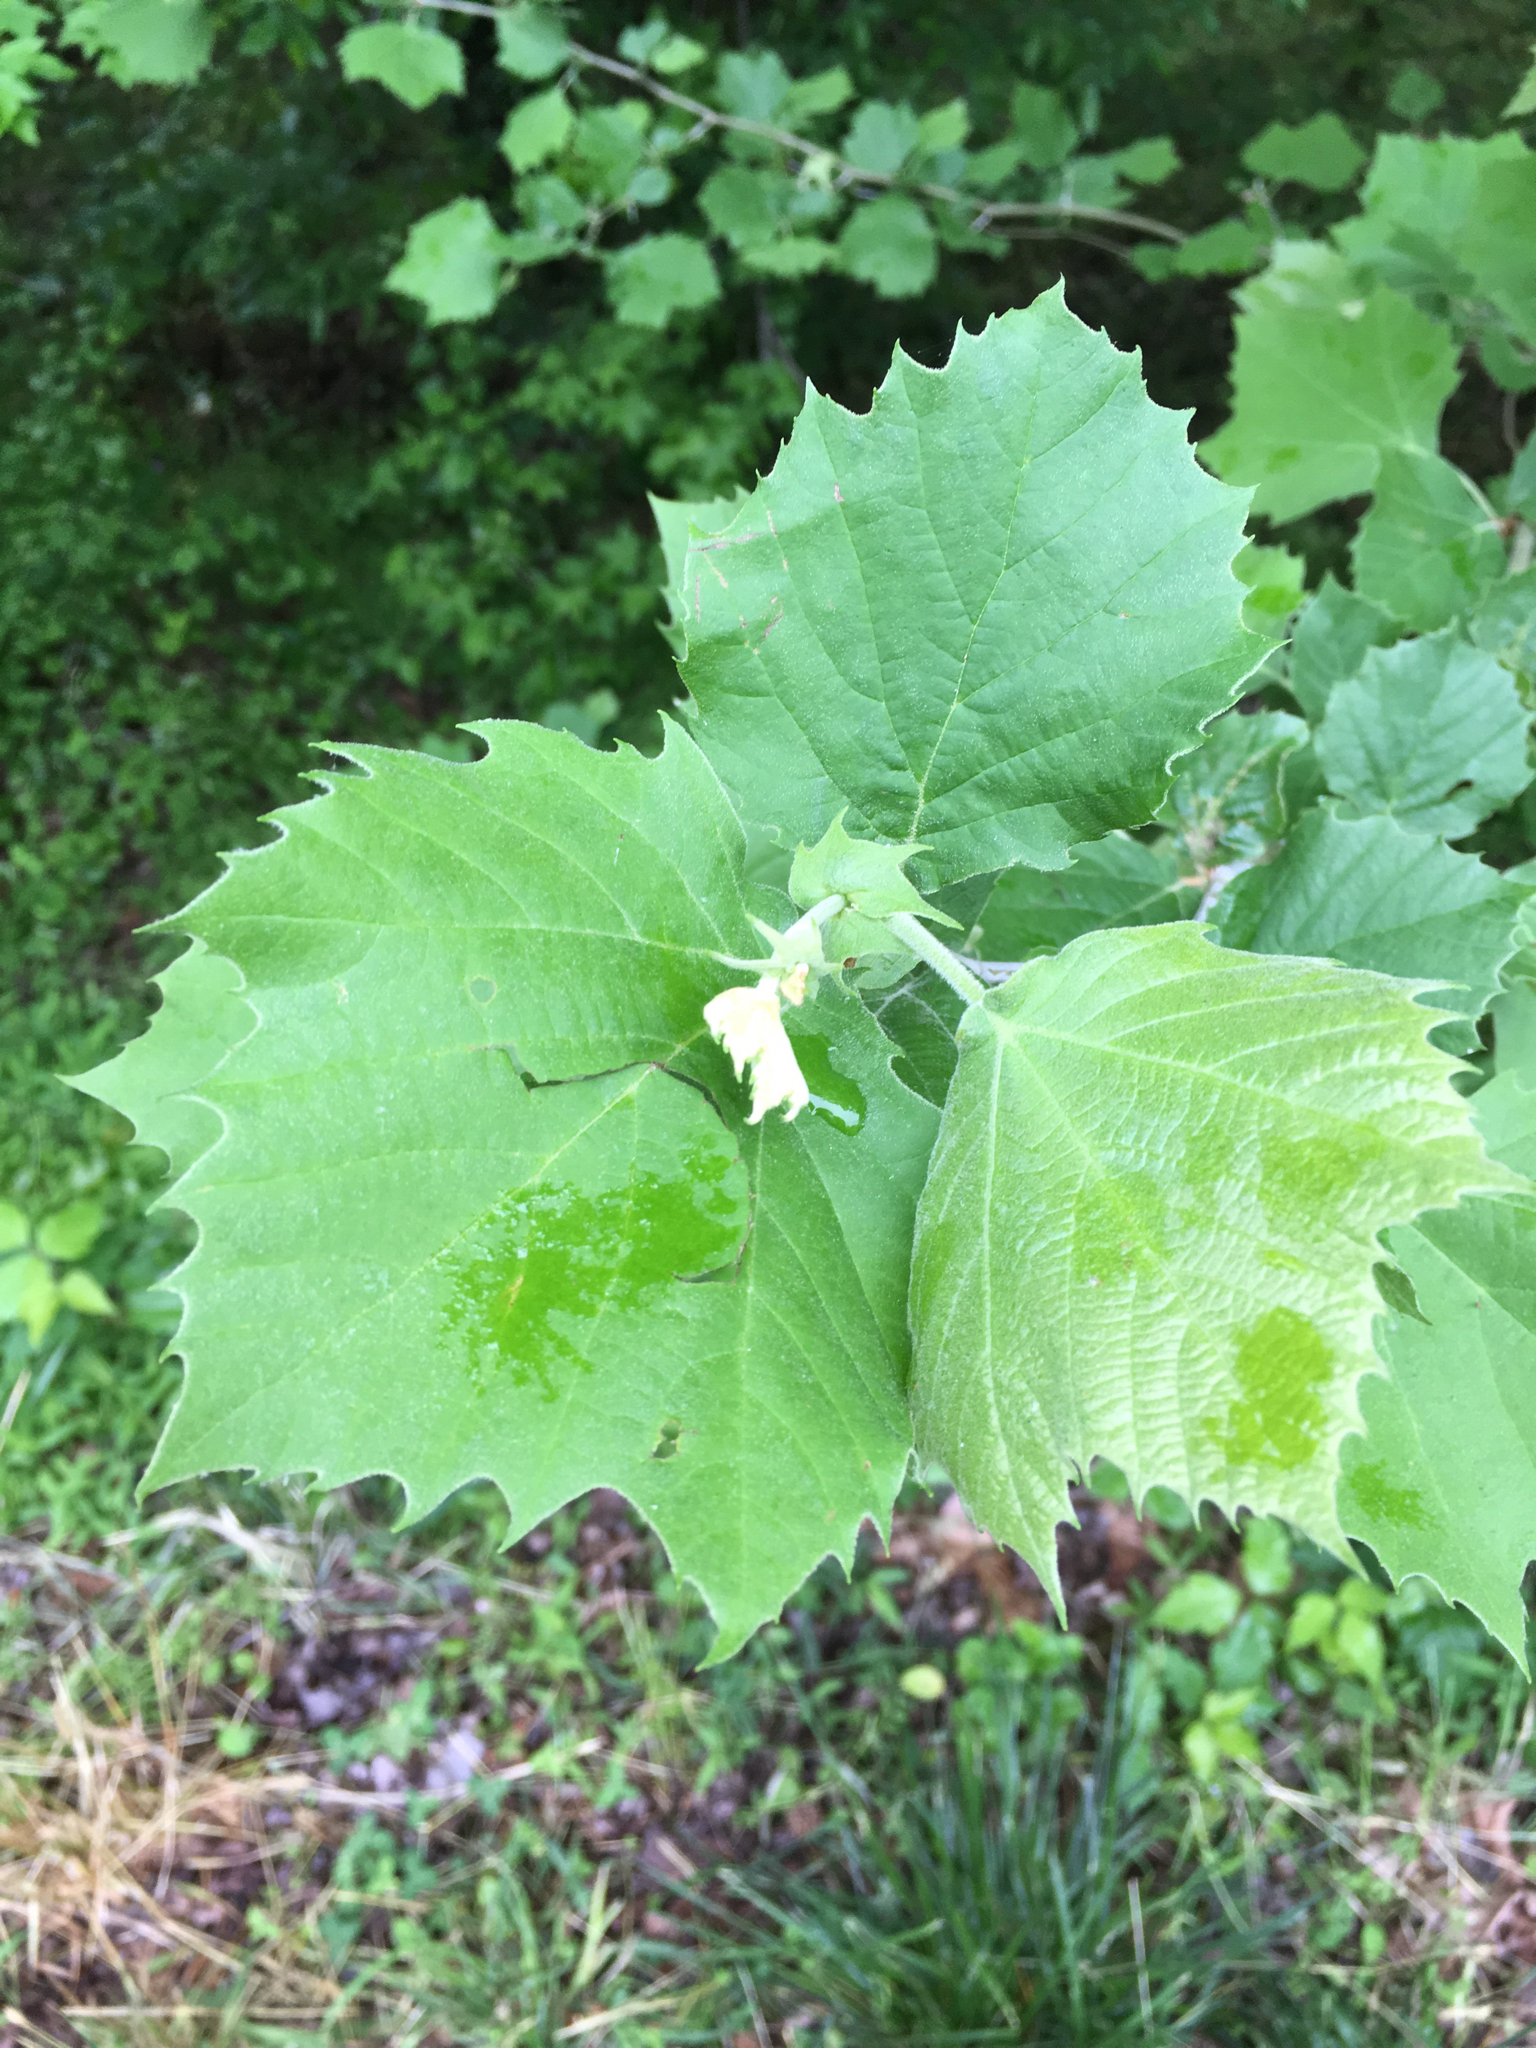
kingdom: Plantae
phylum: Tracheophyta
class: Magnoliopsida
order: Proteales
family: Platanaceae
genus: Platanus
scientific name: Platanus occidentalis
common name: American sycamore
